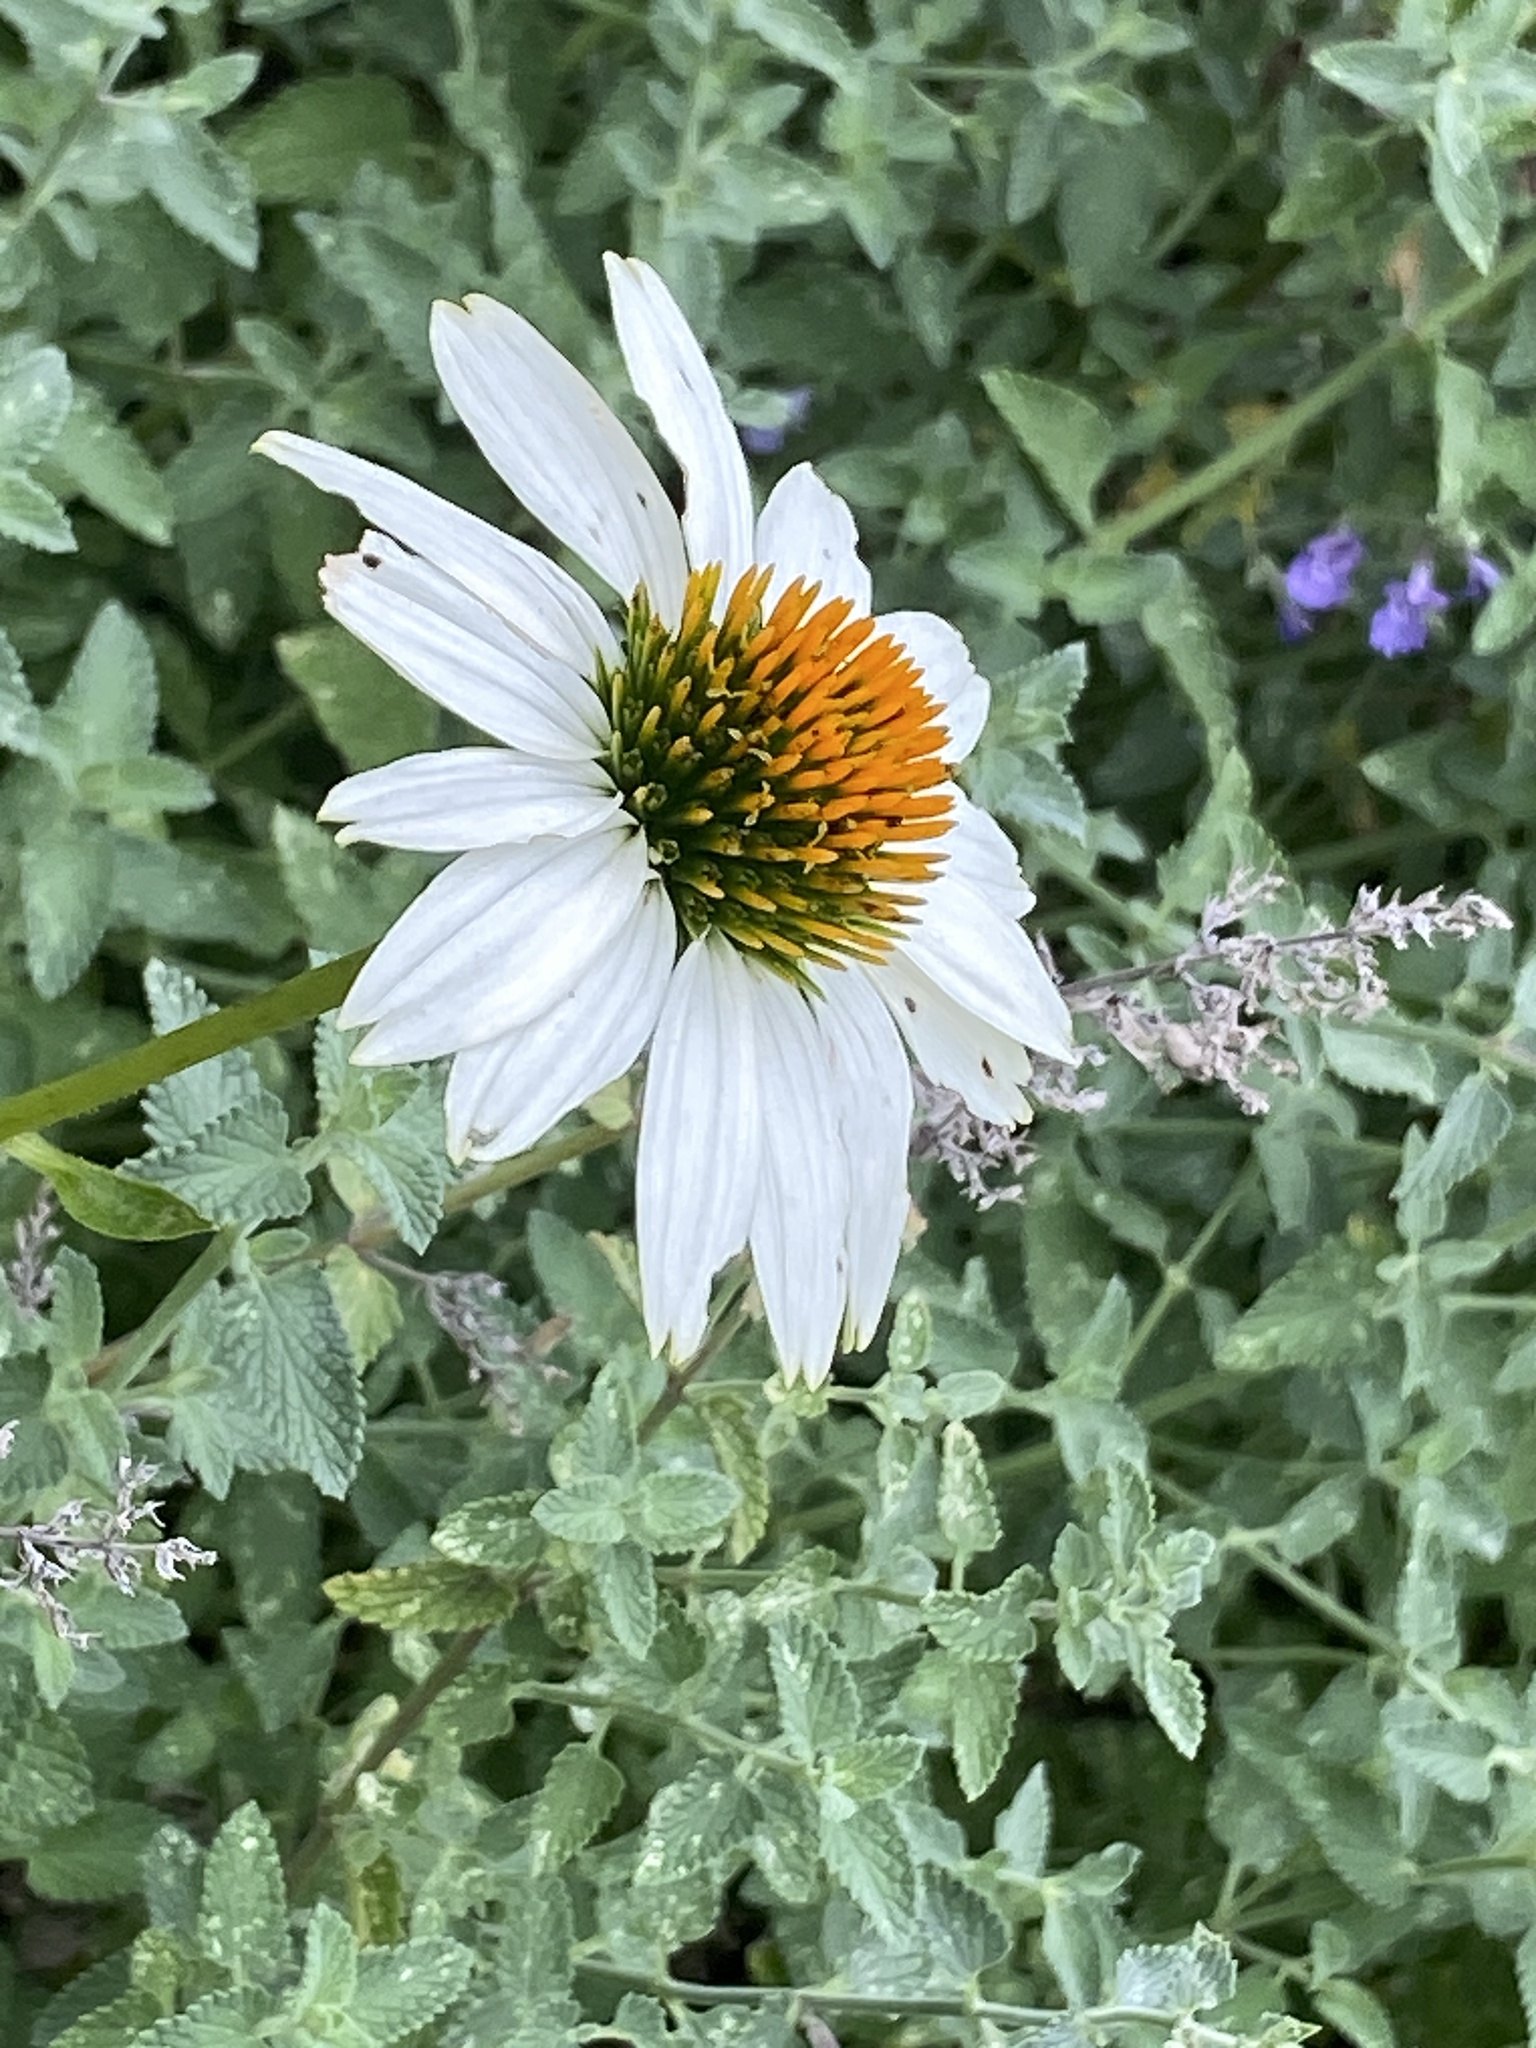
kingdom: Plantae
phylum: Tracheophyta
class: Magnoliopsida
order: Asterales
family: Asteraceae
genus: Echinacea
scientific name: Echinacea purpurea
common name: Broad-leaved purple coneflower
